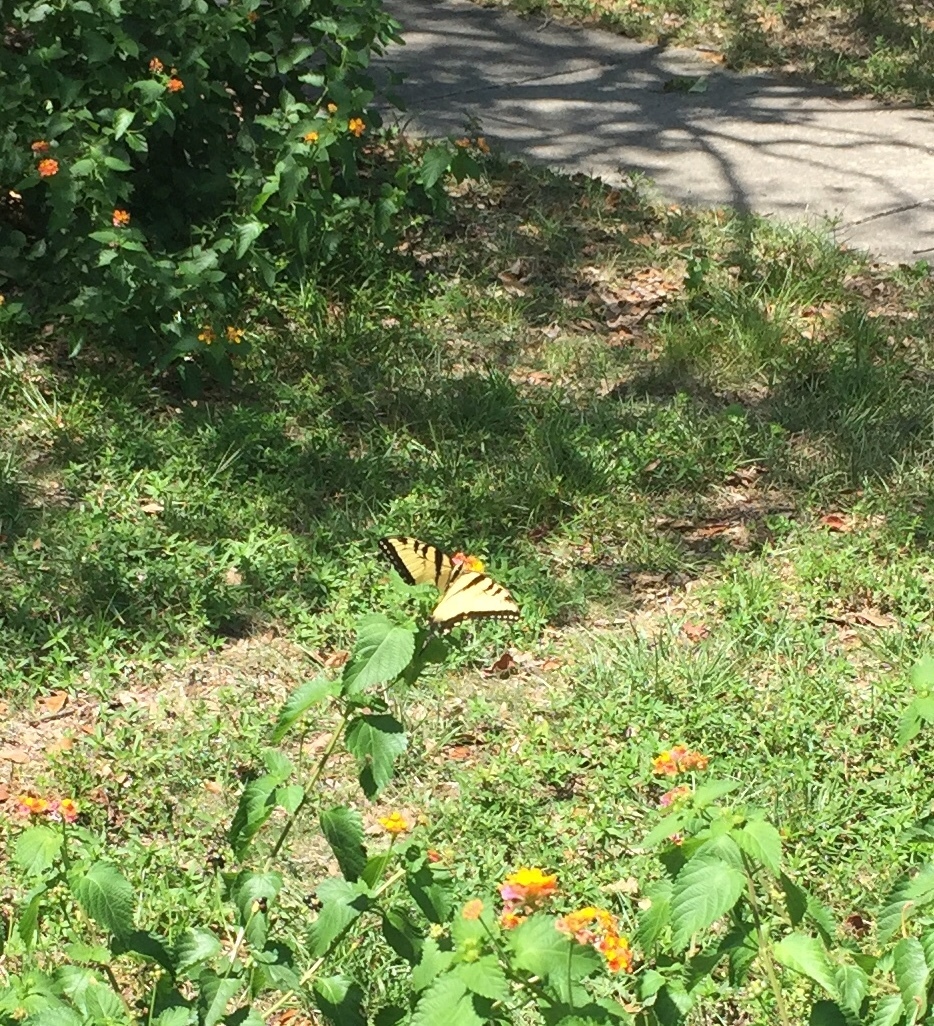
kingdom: Animalia
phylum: Arthropoda
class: Insecta
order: Lepidoptera
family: Papilionidae
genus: Papilio
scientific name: Papilio glaucus
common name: Tiger swallowtail
